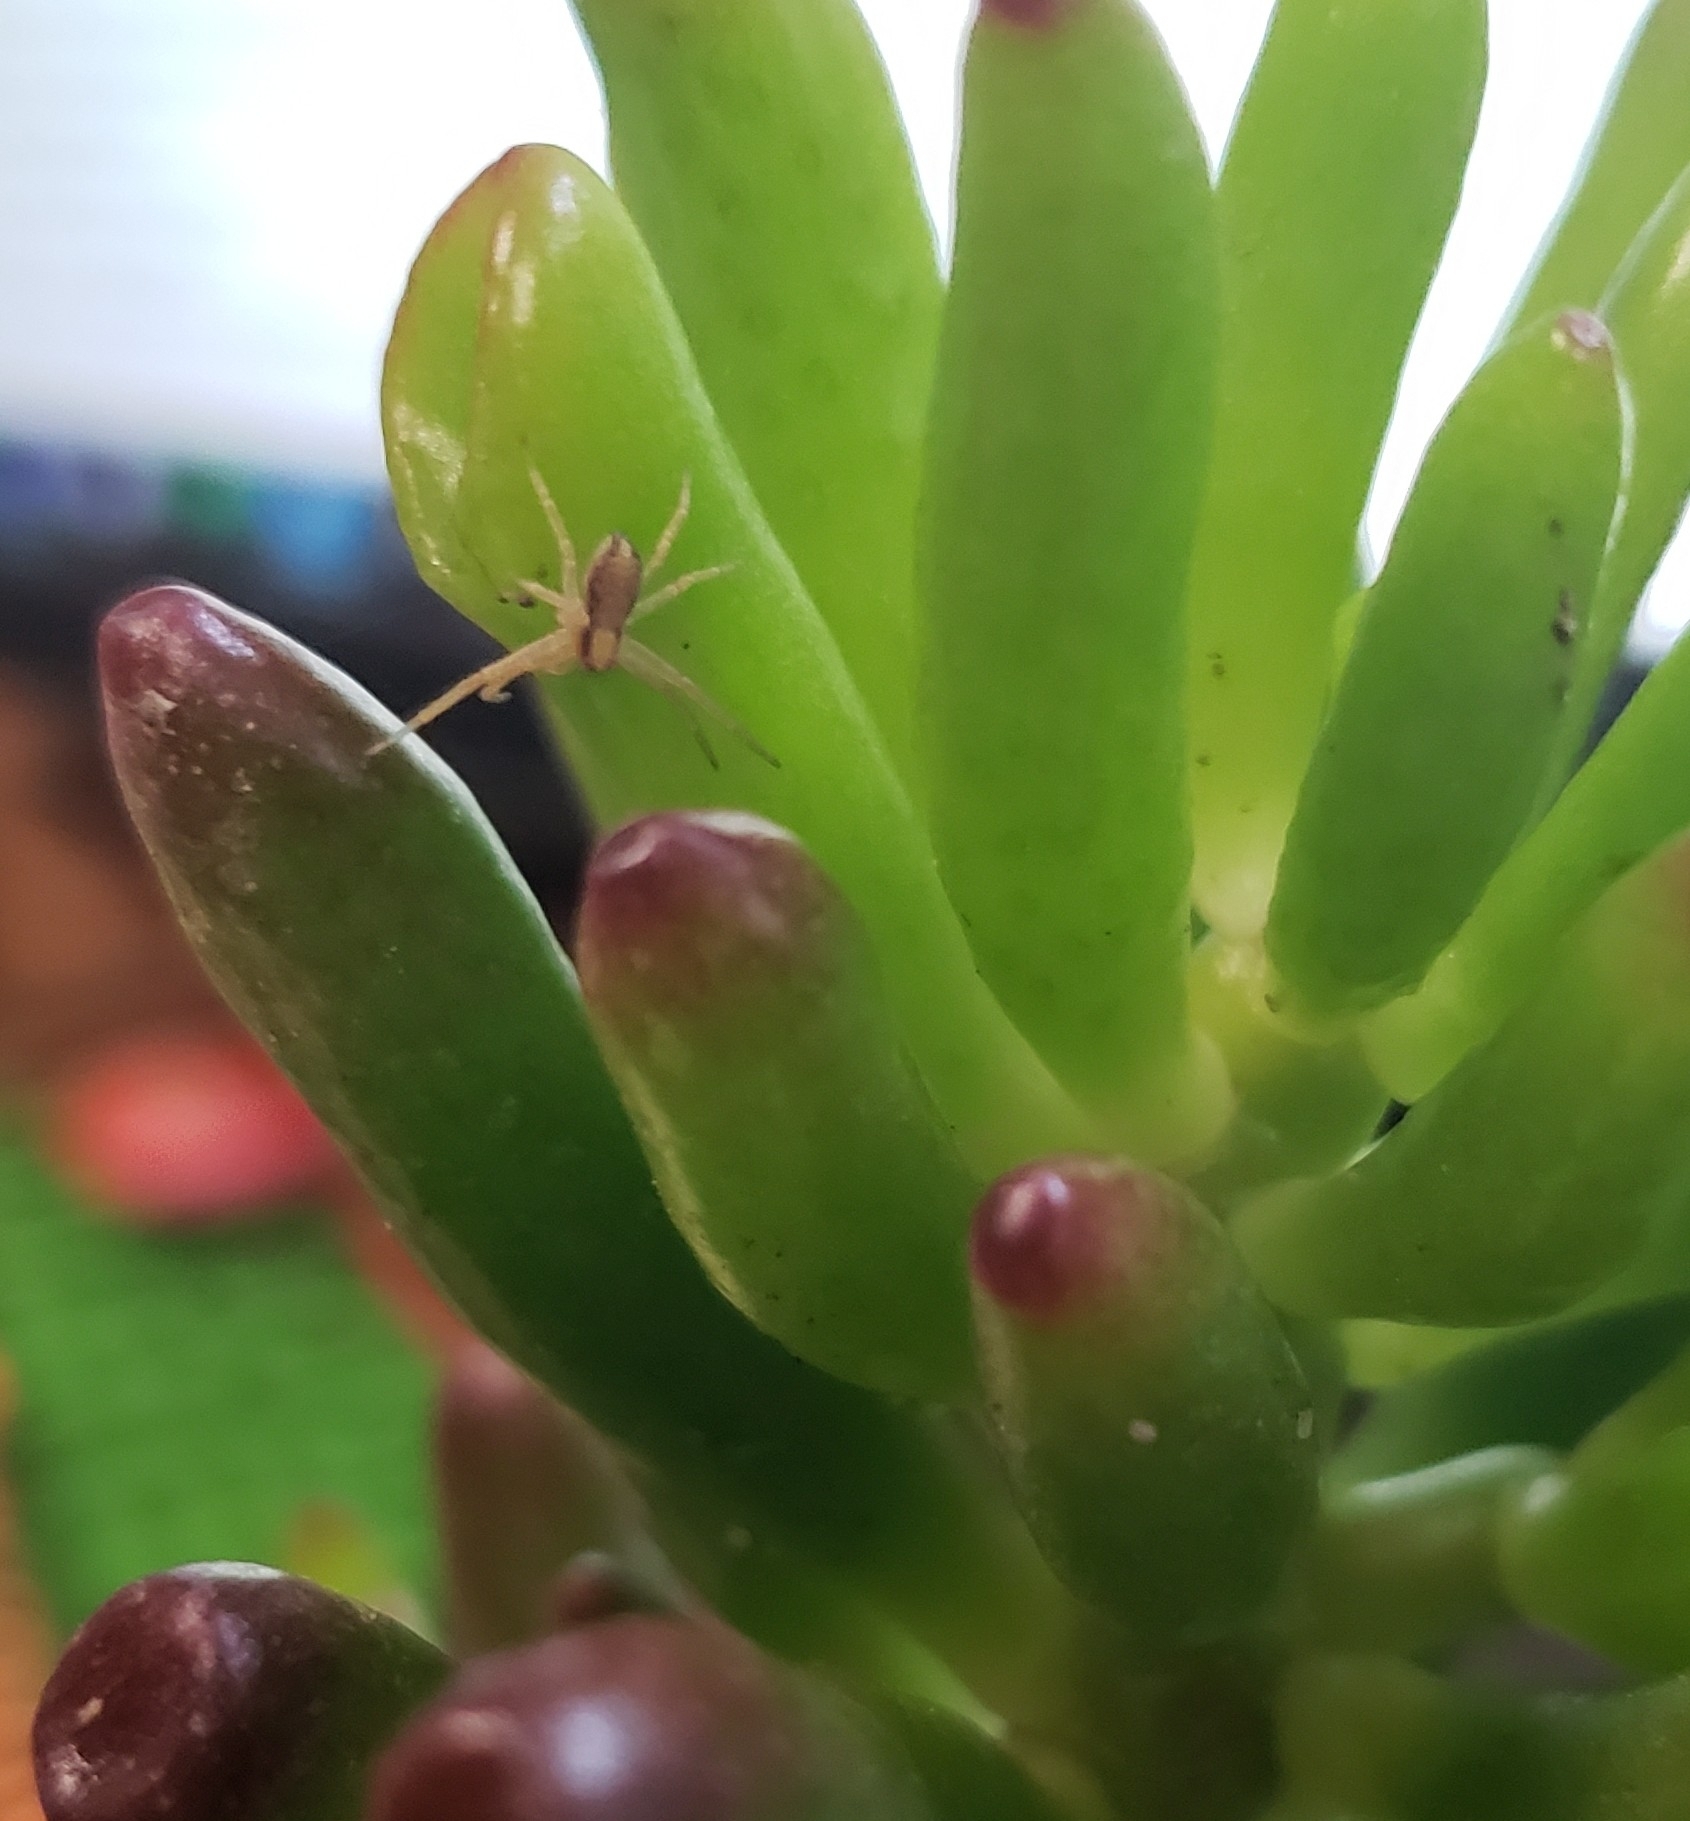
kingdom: Animalia
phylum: Arthropoda
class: Arachnida
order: Araneae
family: Philodromidae
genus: Philodromus
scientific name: Philodromus
